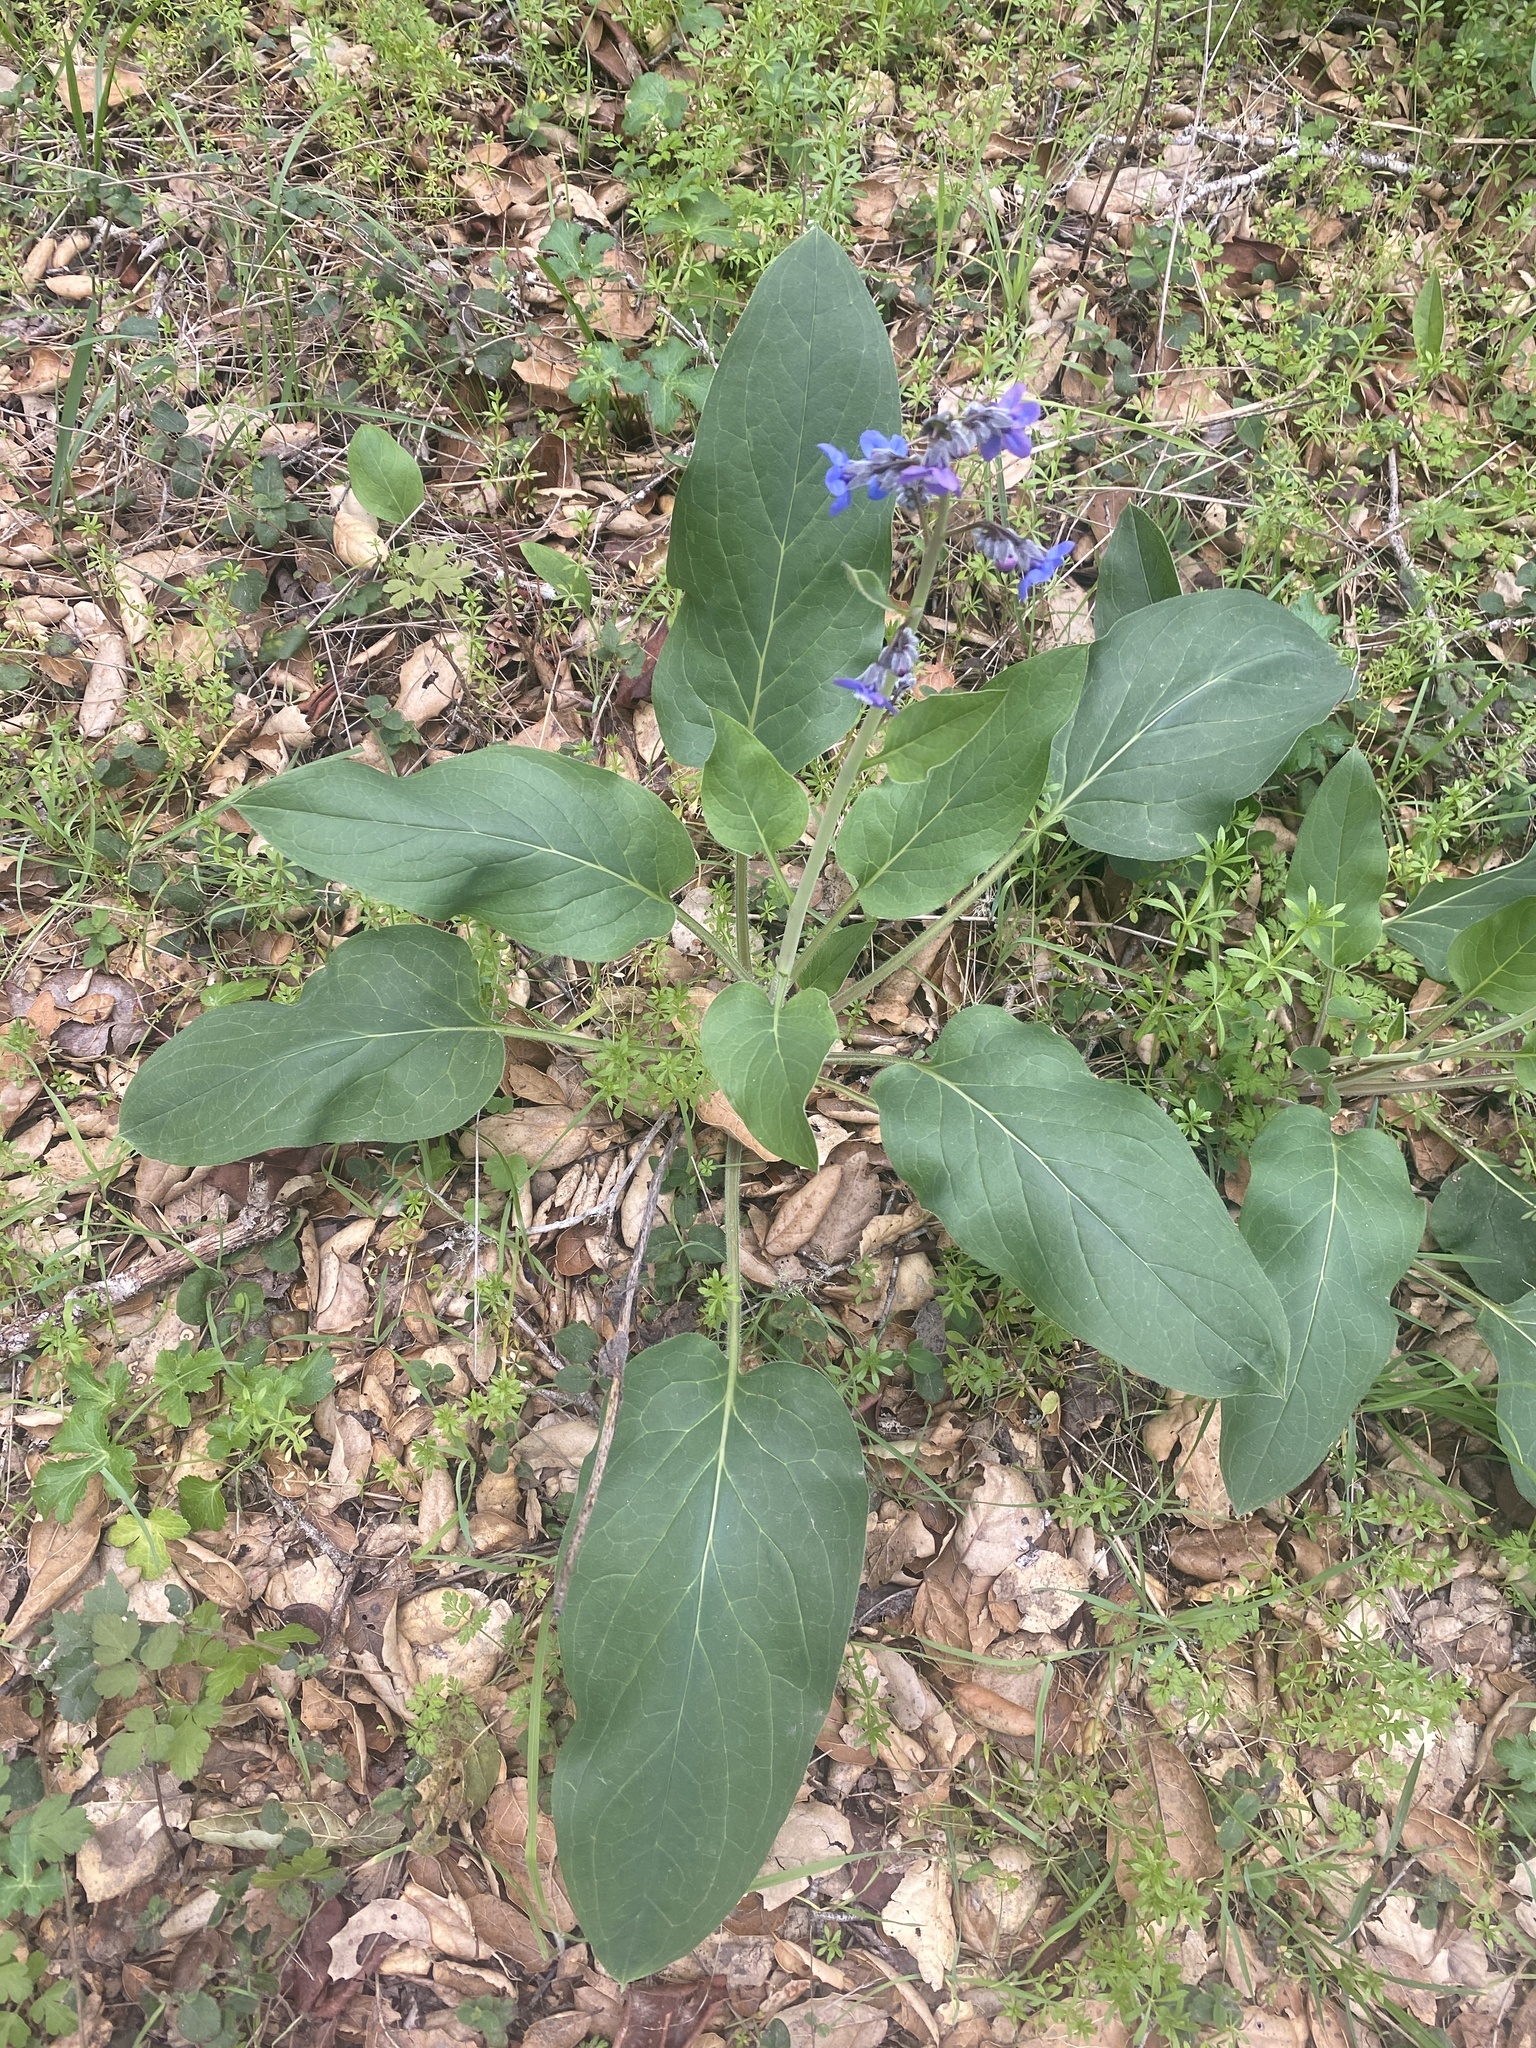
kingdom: Plantae
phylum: Tracheophyta
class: Magnoliopsida
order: Boraginales
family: Boraginaceae
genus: Adelinia
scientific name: Adelinia grande
